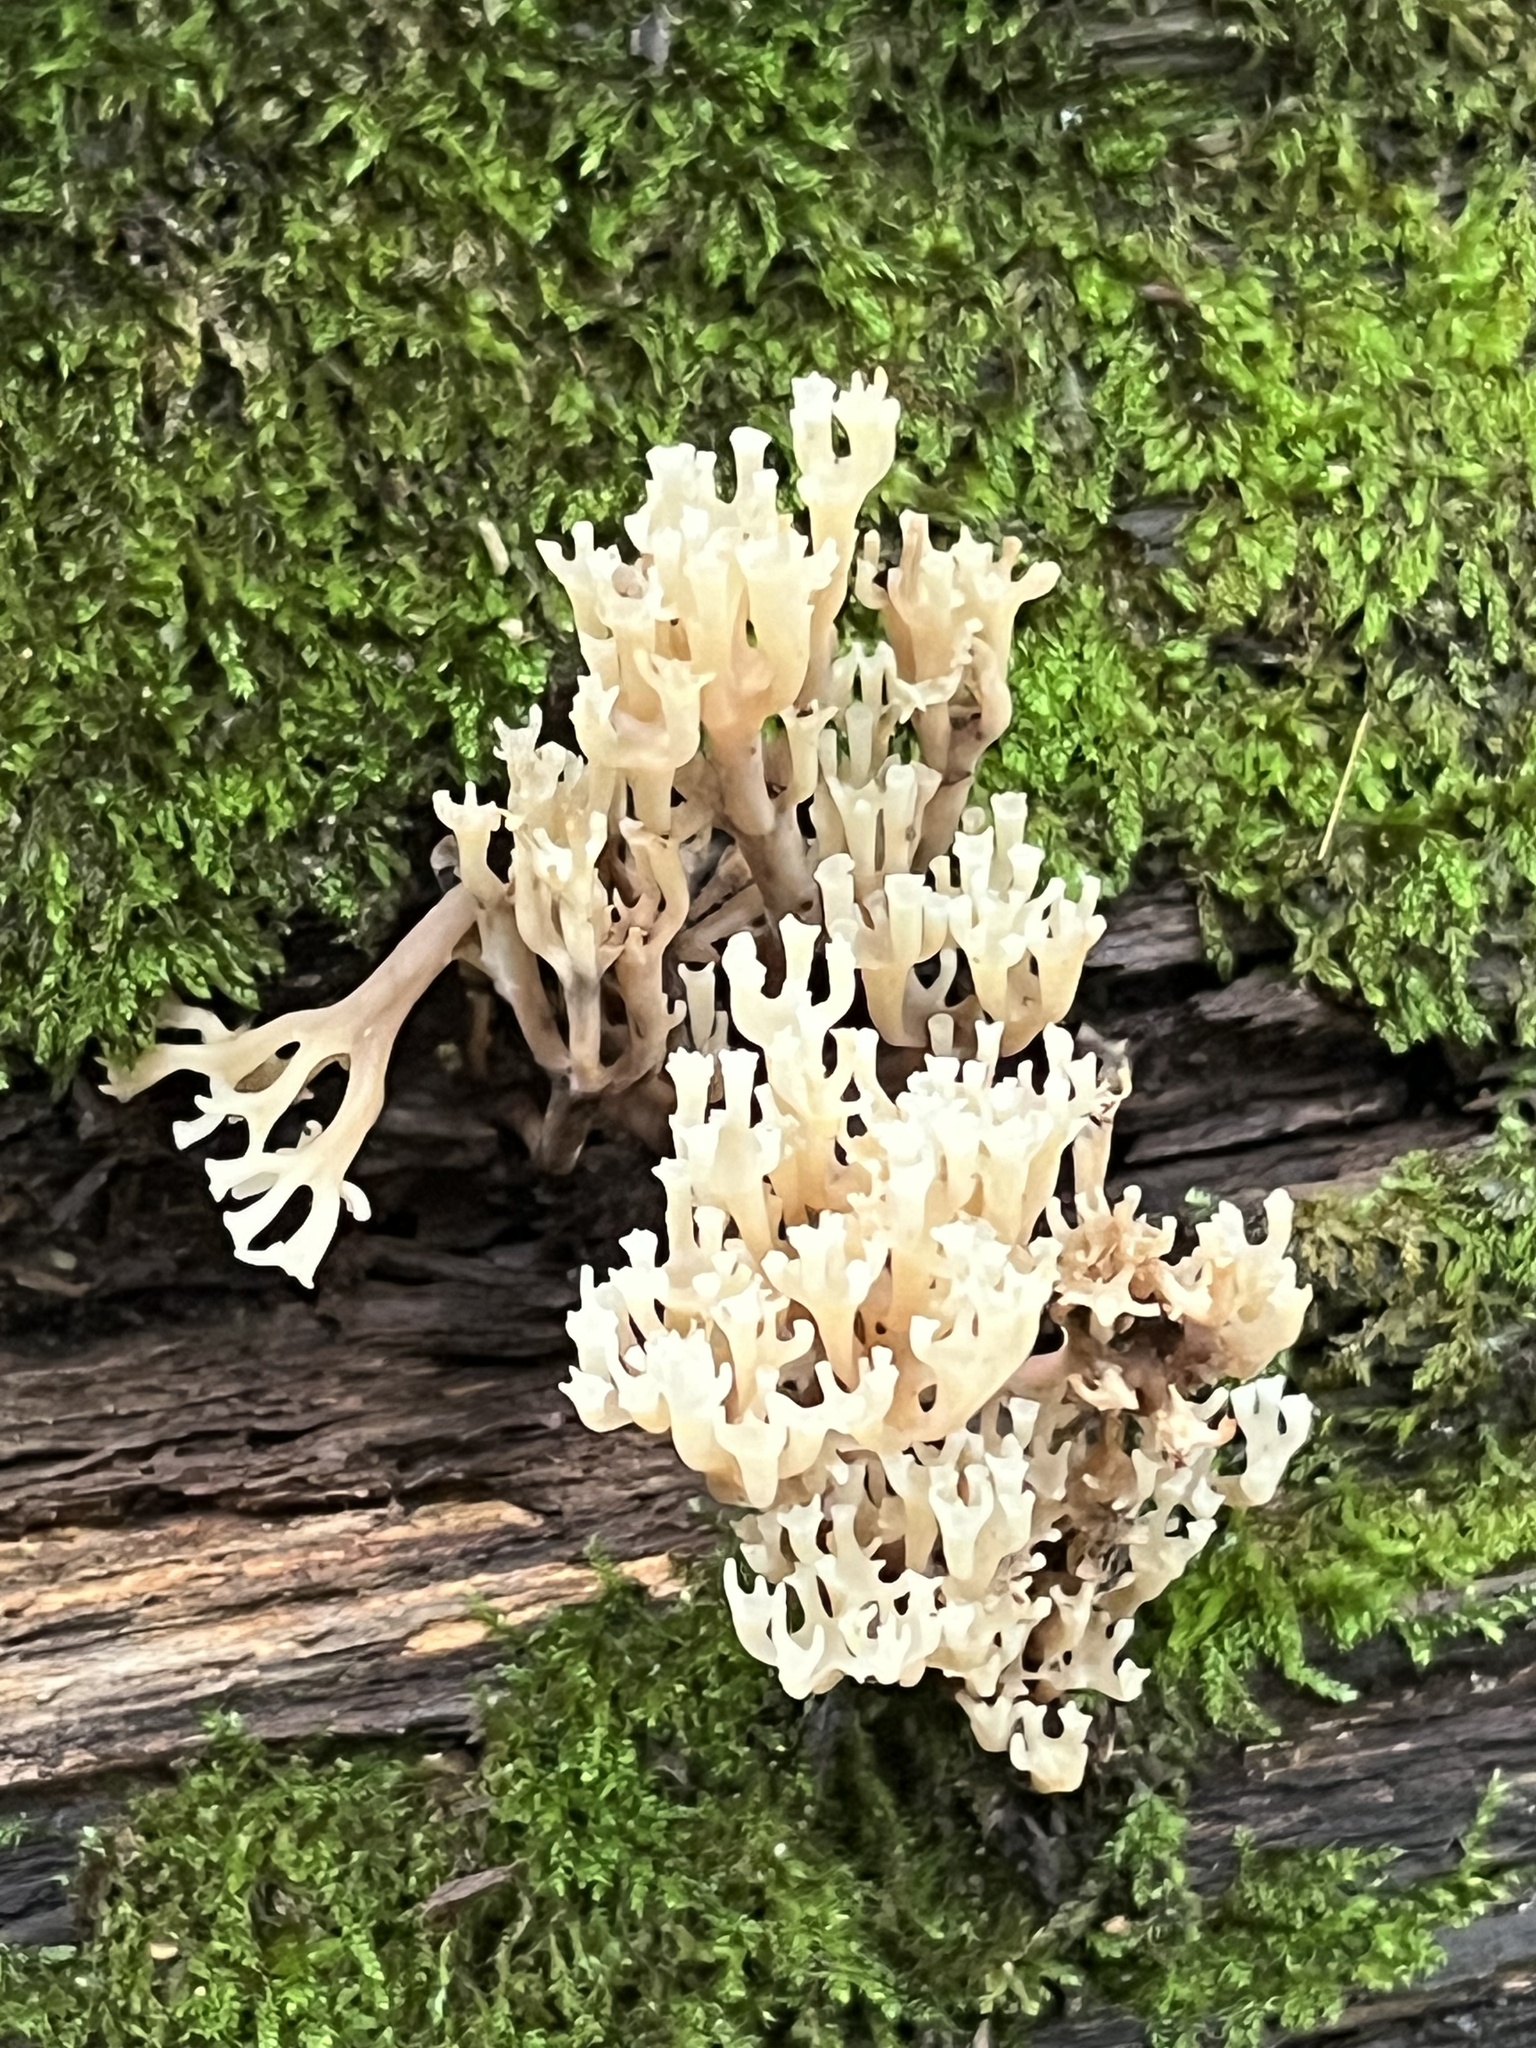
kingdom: Fungi
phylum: Basidiomycota
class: Agaricomycetes
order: Russulales
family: Auriscalpiaceae
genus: Artomyces
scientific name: Artomyces pyxidatus
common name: Crown-tipped coral fungus
